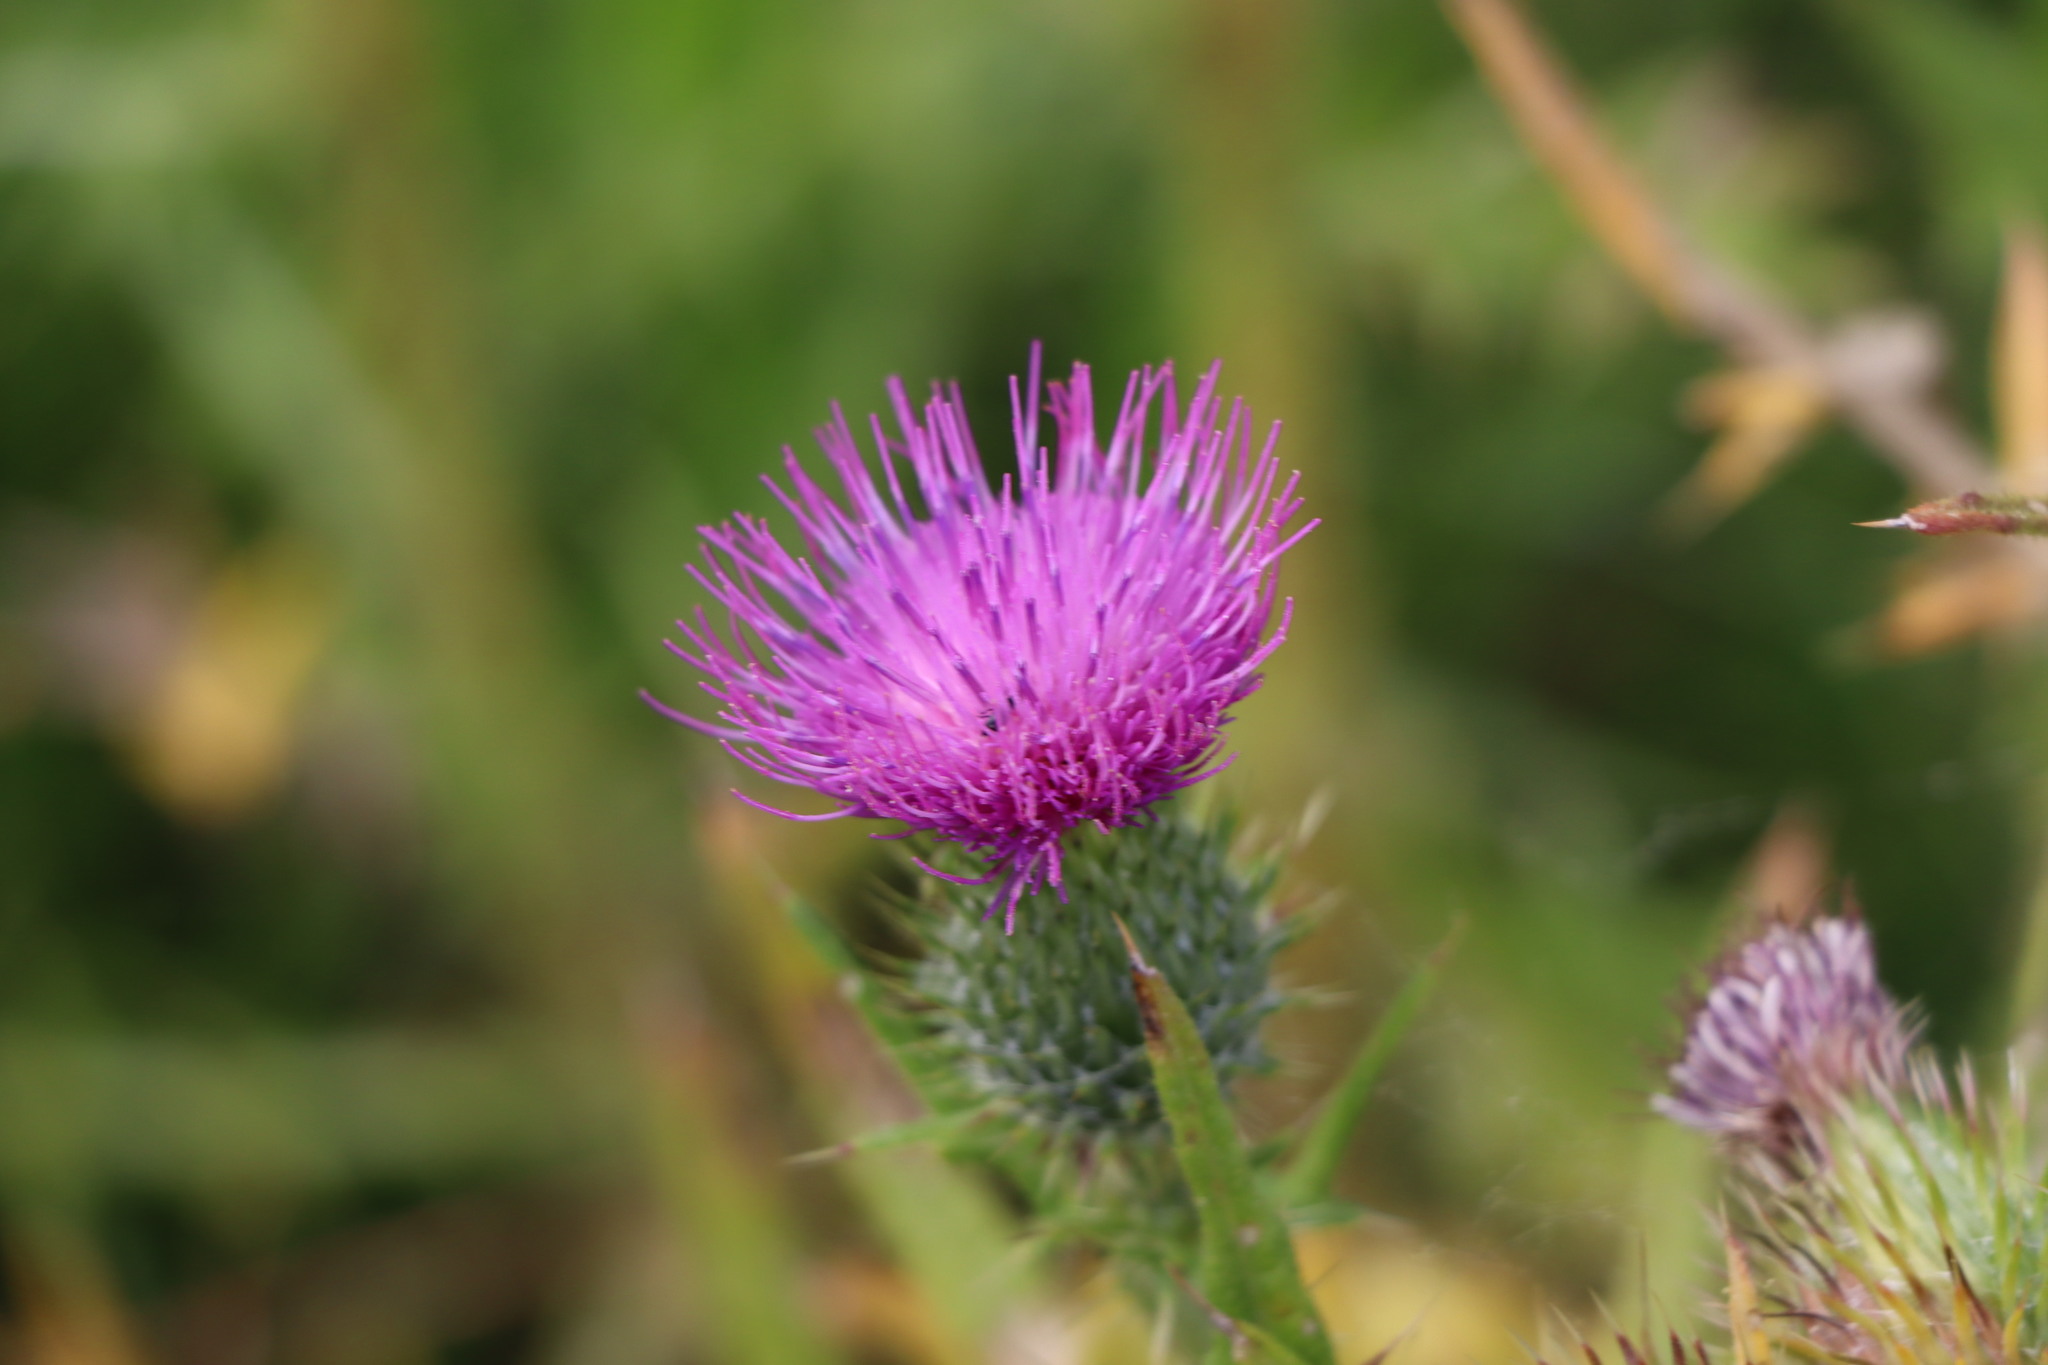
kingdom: Plantae
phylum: Tracheophyta
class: Magnoliopsida
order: Asterales
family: Asteraceae
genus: Cirsium
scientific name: Cirsium vulgare
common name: Bull thistle
